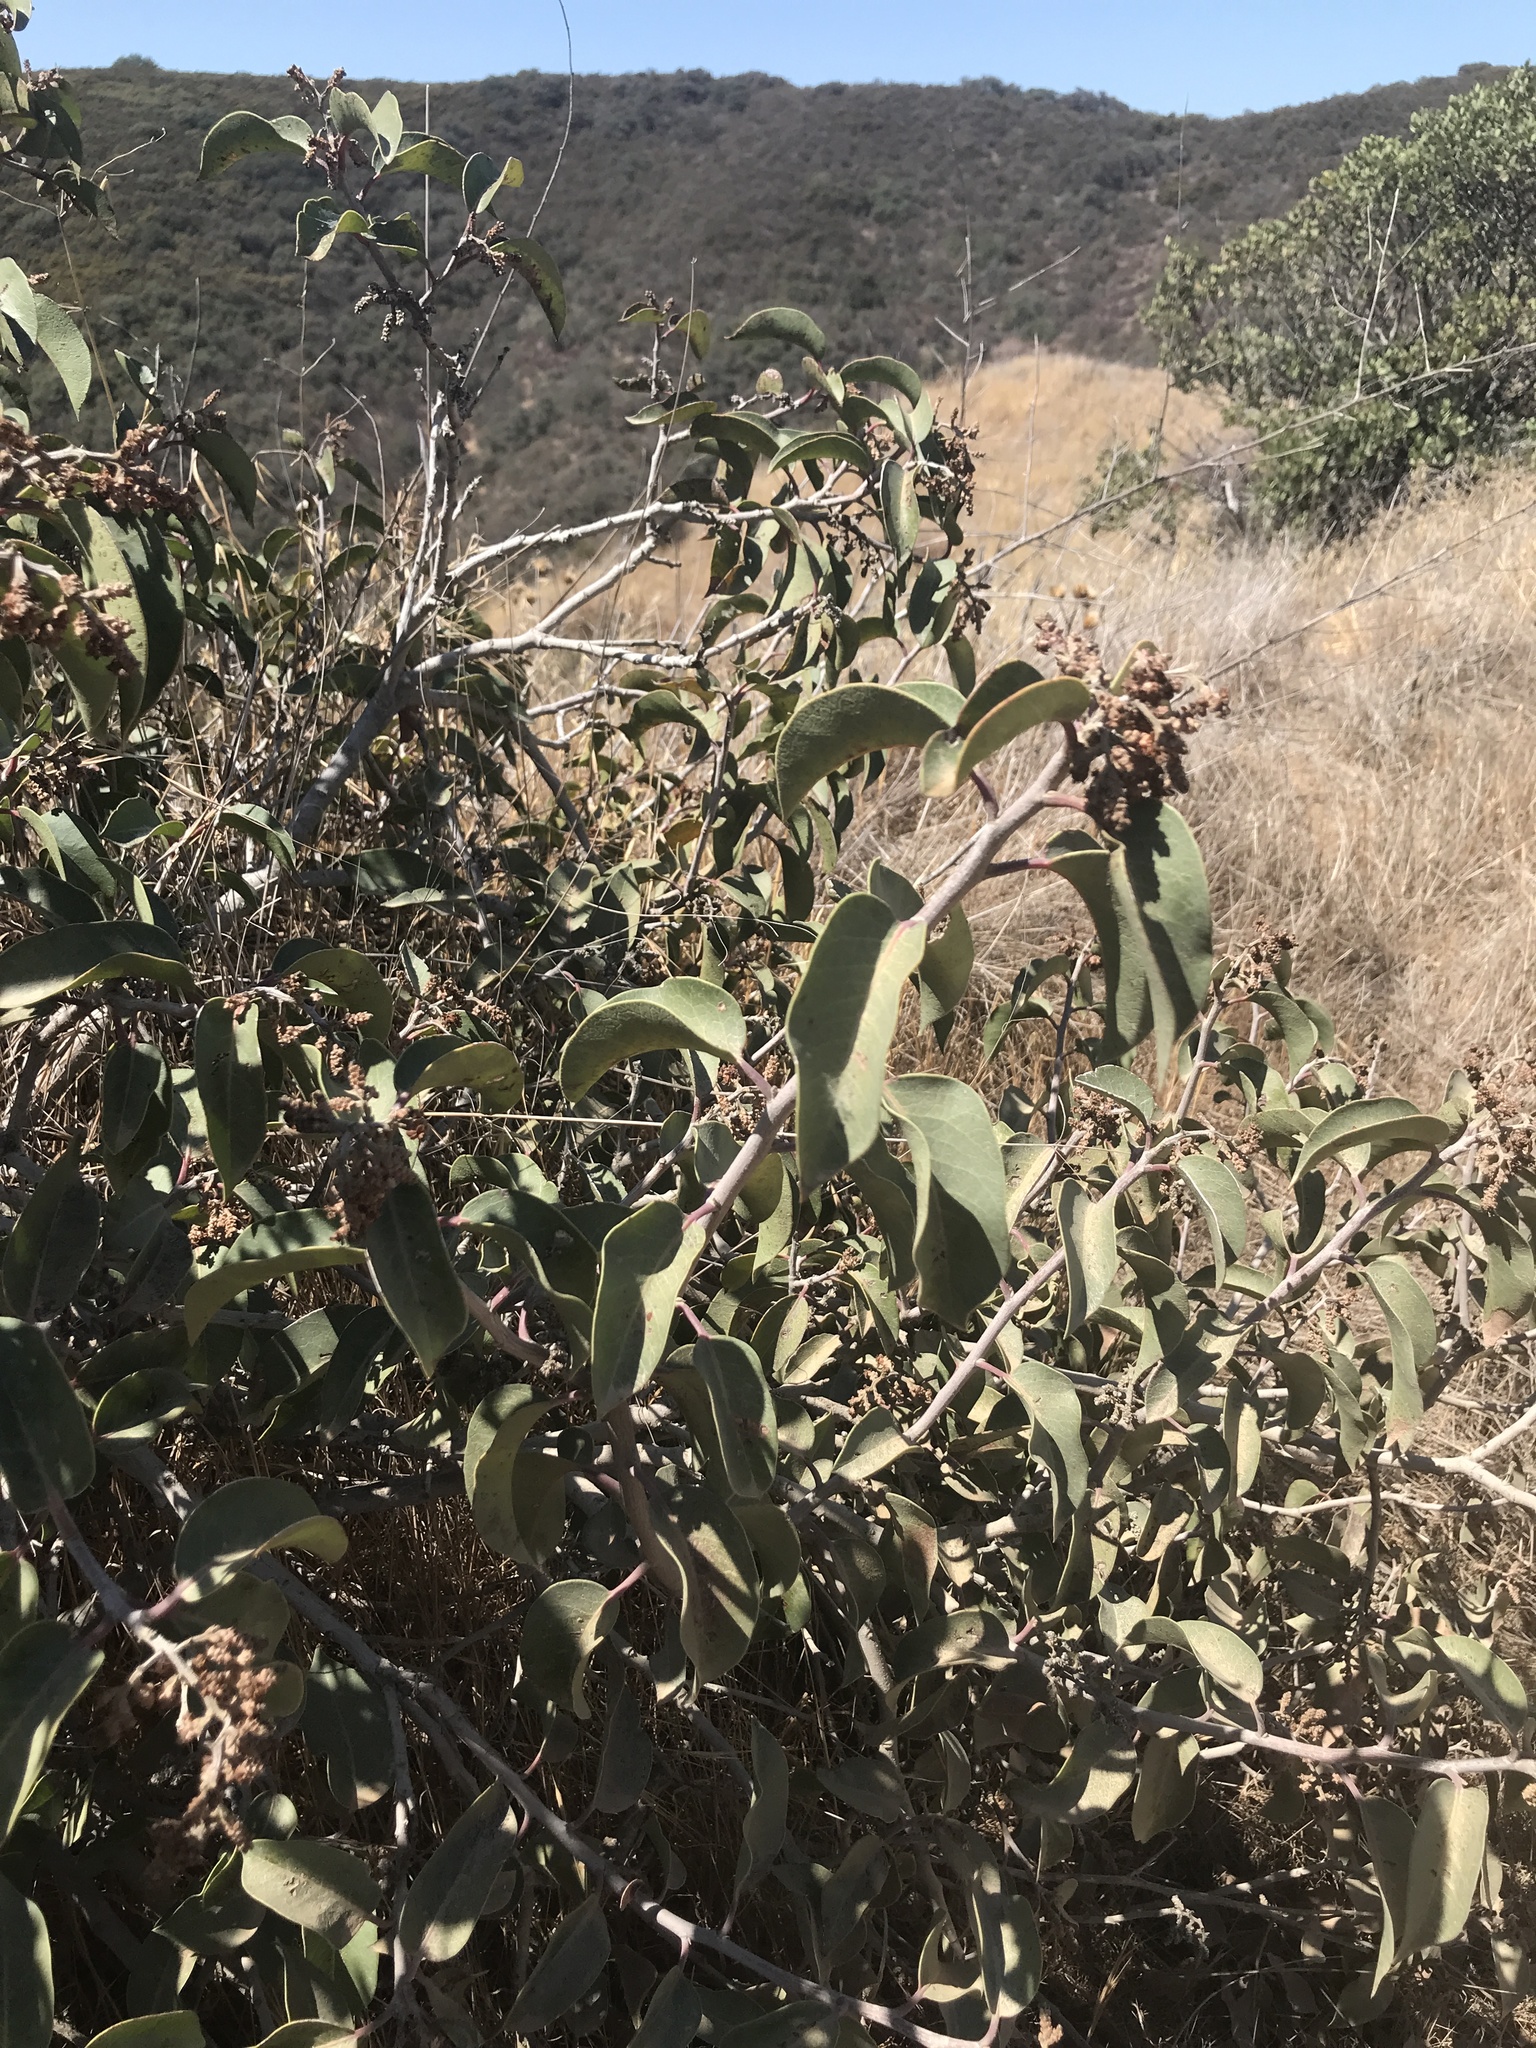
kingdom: Plantae
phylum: Tracheophyta
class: Magnoliopsida
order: Sapindales
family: Anacardiaceae
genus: Rhus
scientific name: Rhus ovata
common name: Sugar sumac
